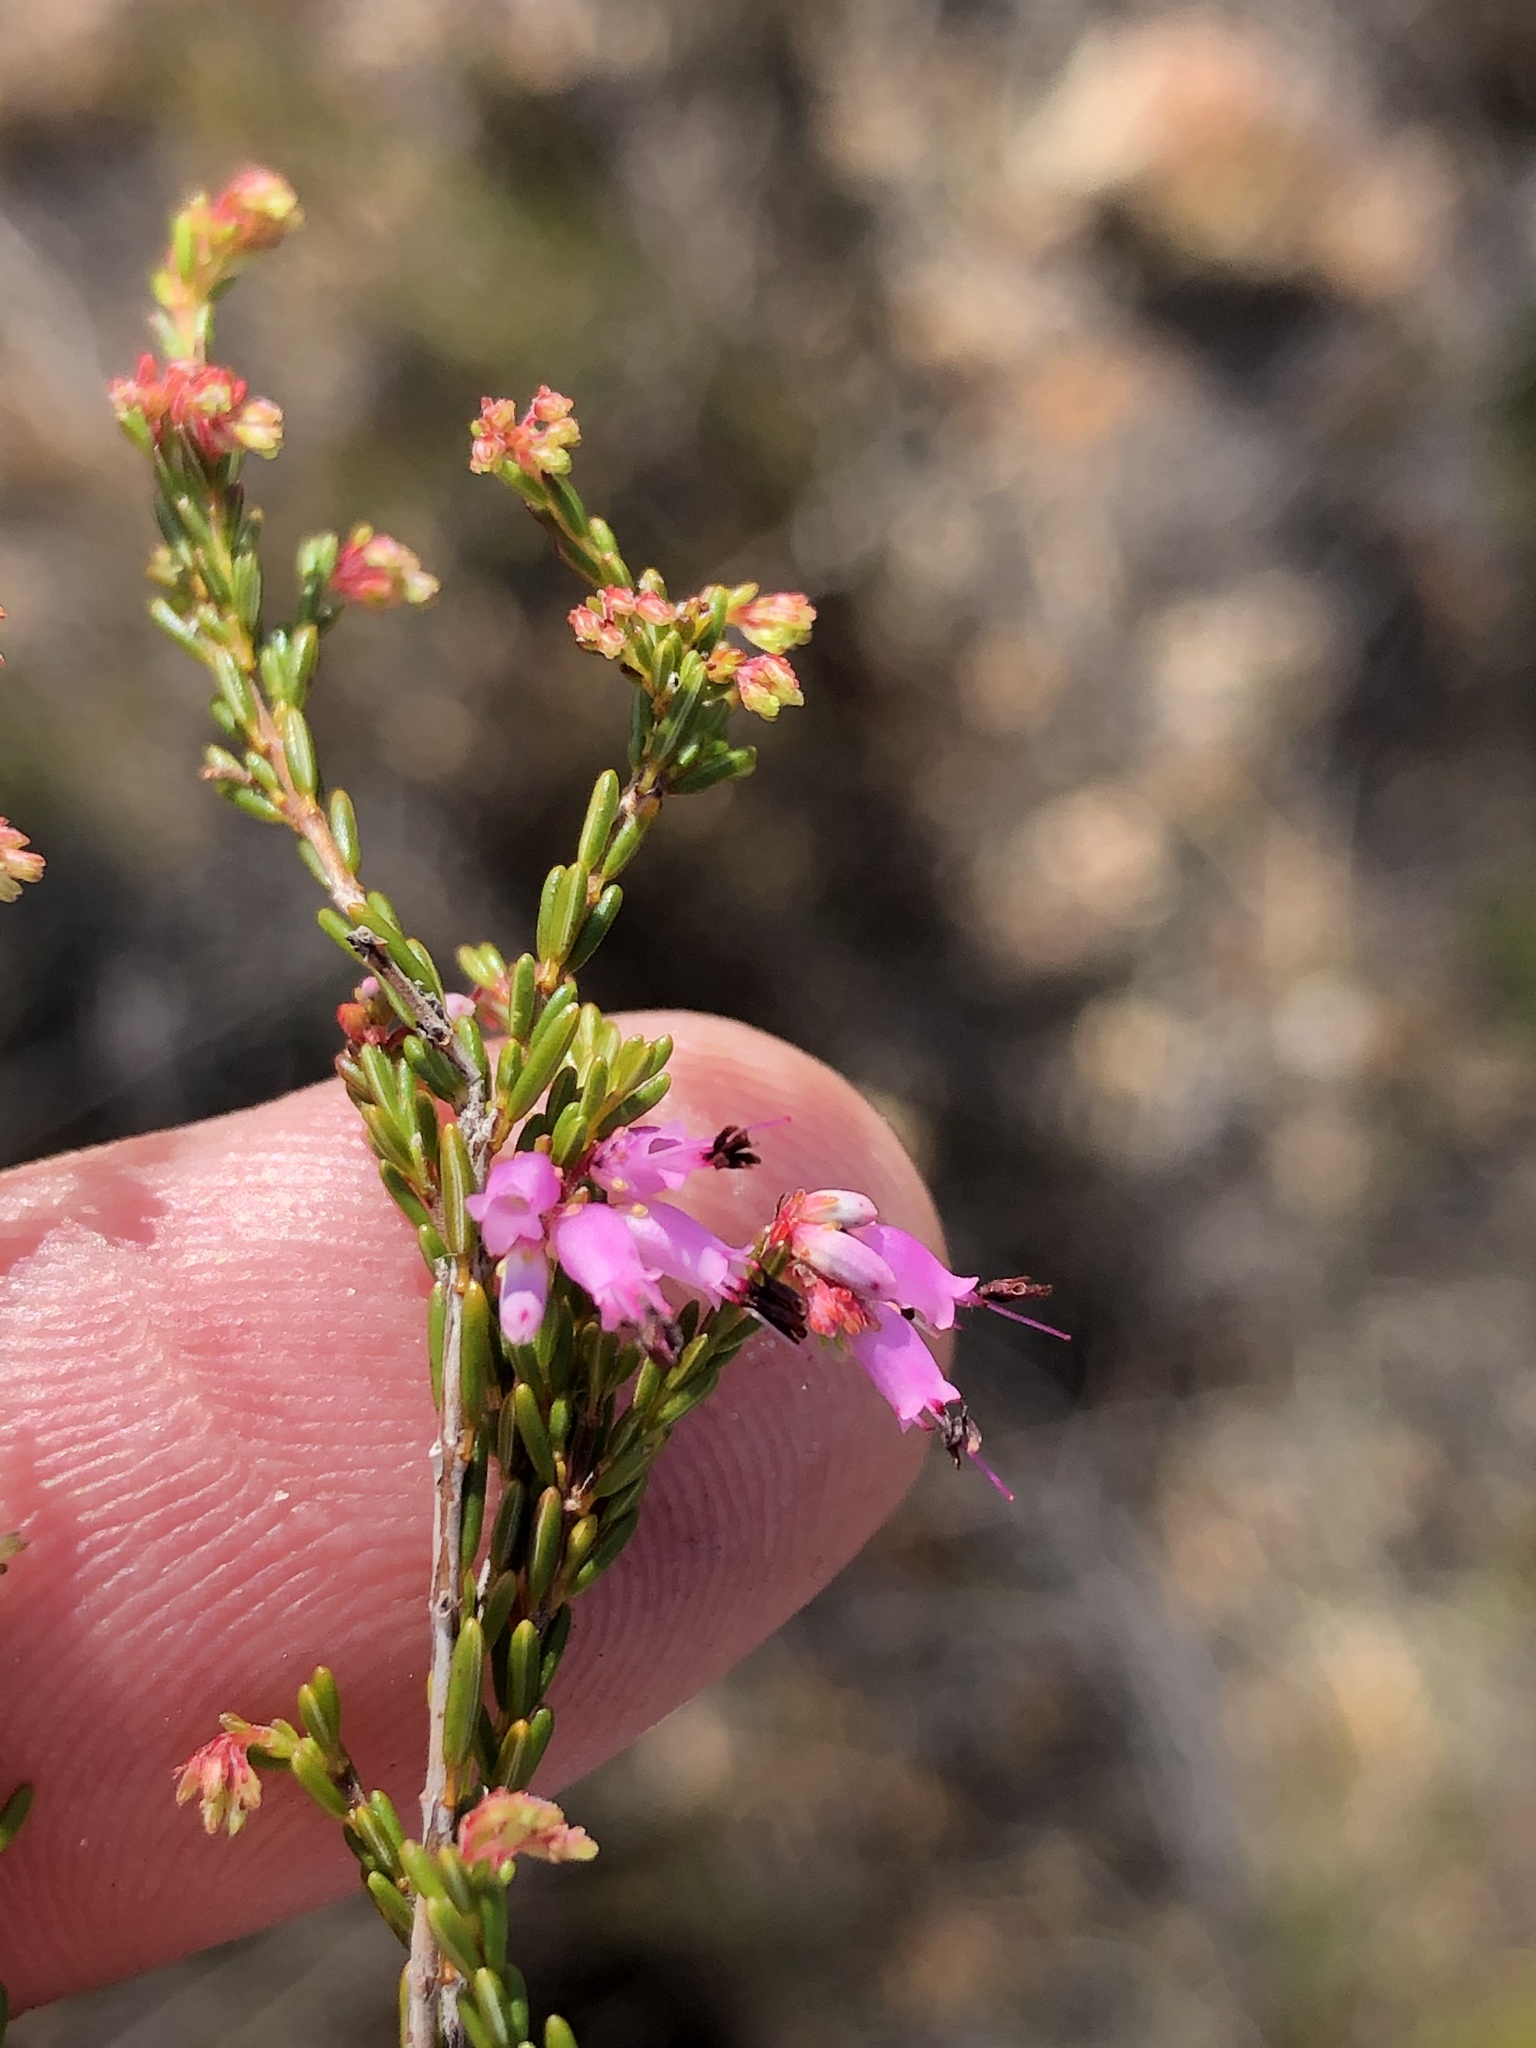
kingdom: Plantae
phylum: Tracheophyta
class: Magnoliopsida
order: Ericales
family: Ericaceae
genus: Erica
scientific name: Erica rosacea
